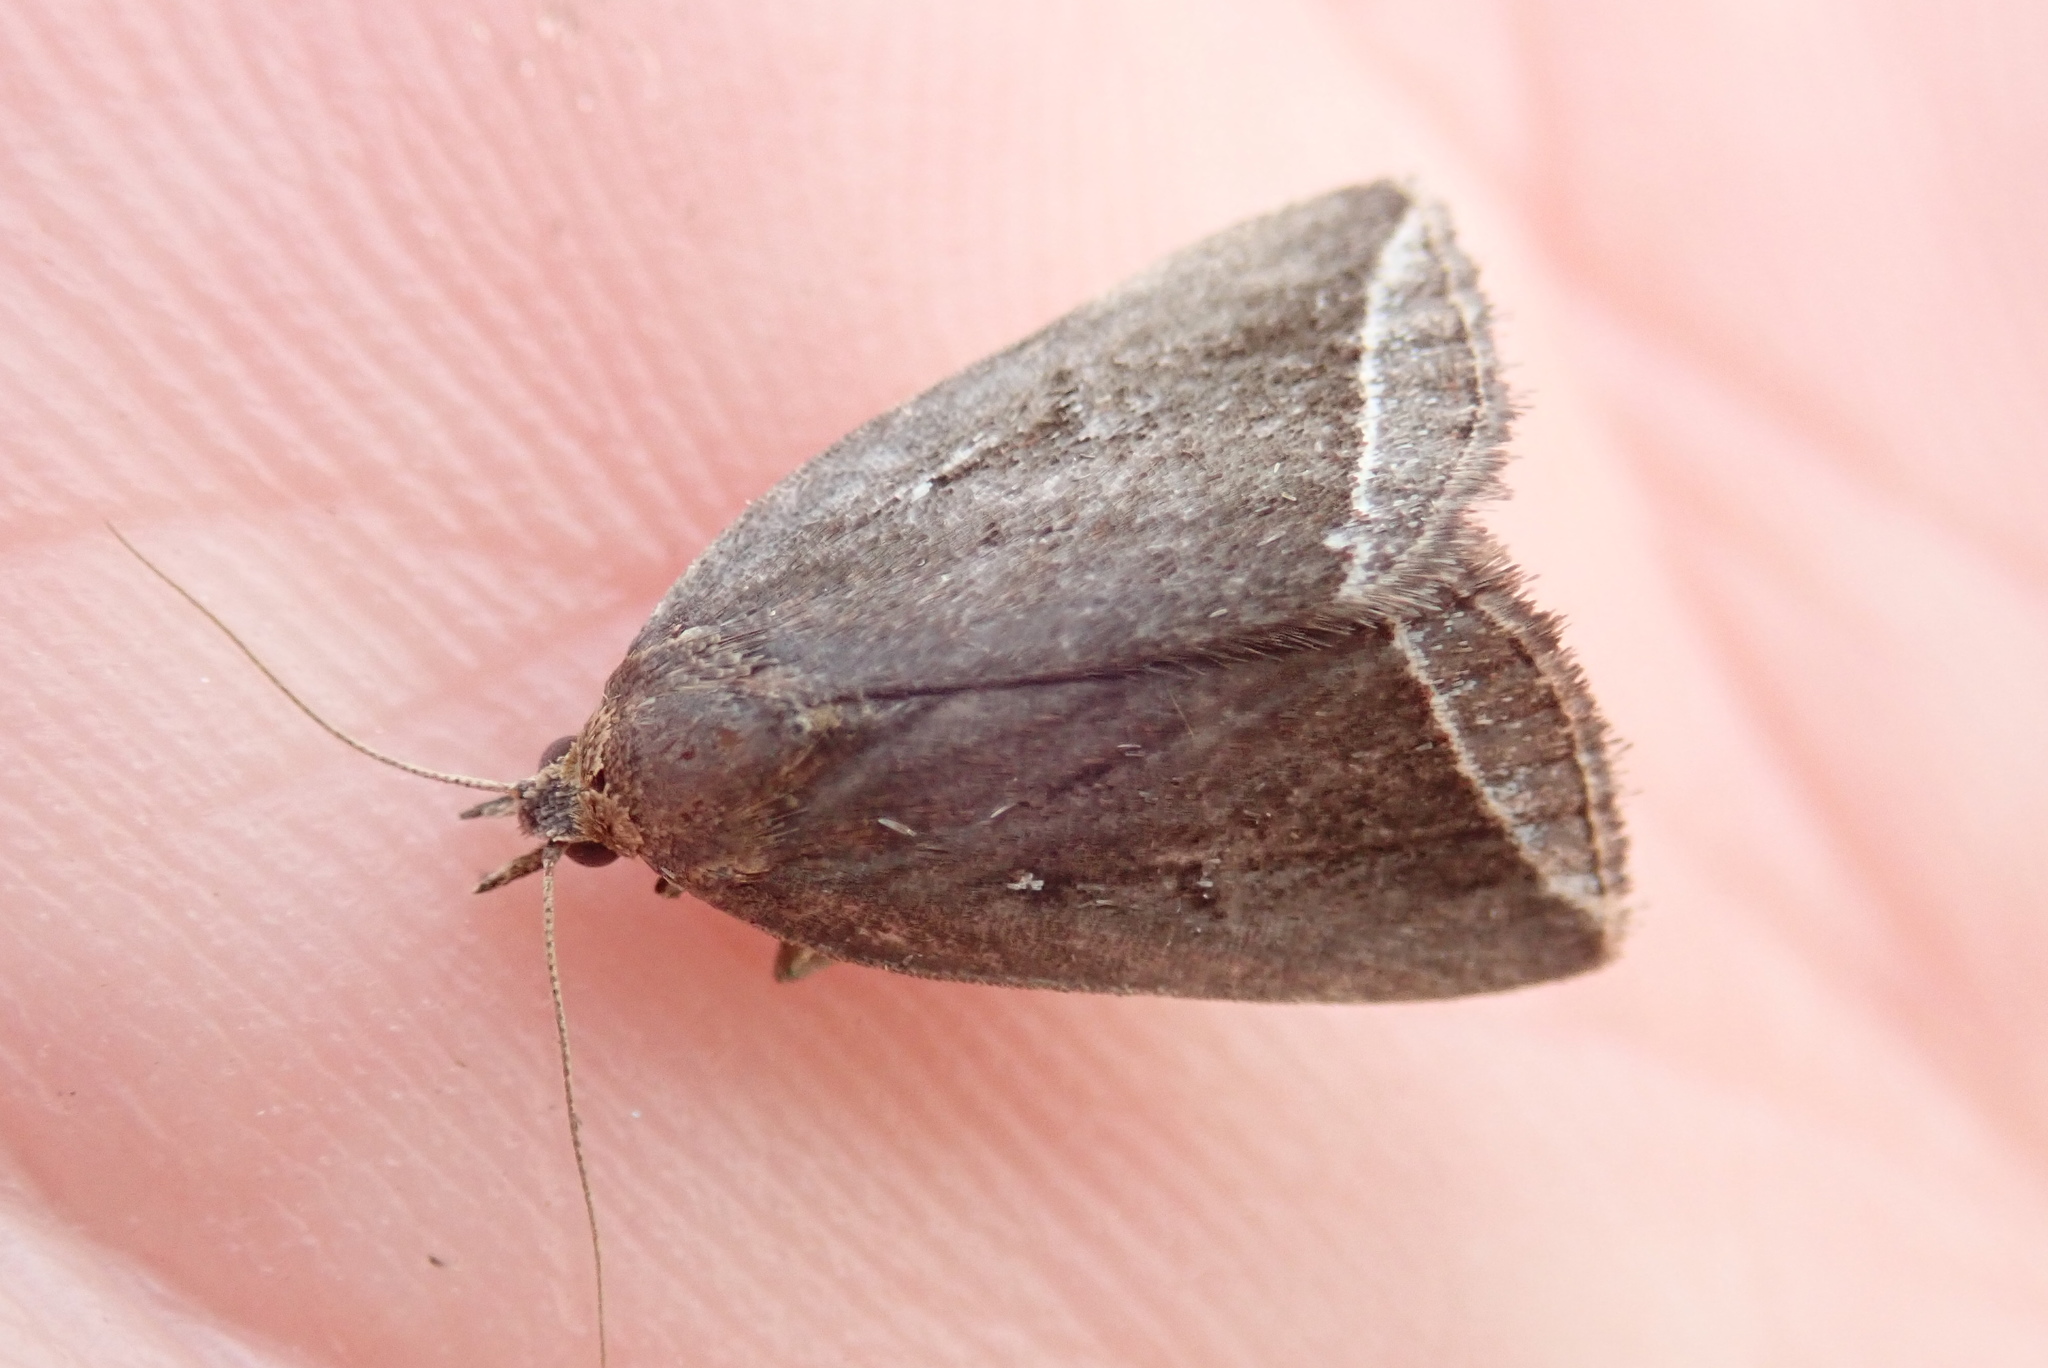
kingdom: Animalia
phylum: Arthropoda
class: Insecta
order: Lepidoptera
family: Erebidae
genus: Capis
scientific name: Capis curvata
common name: Curved halter moth
